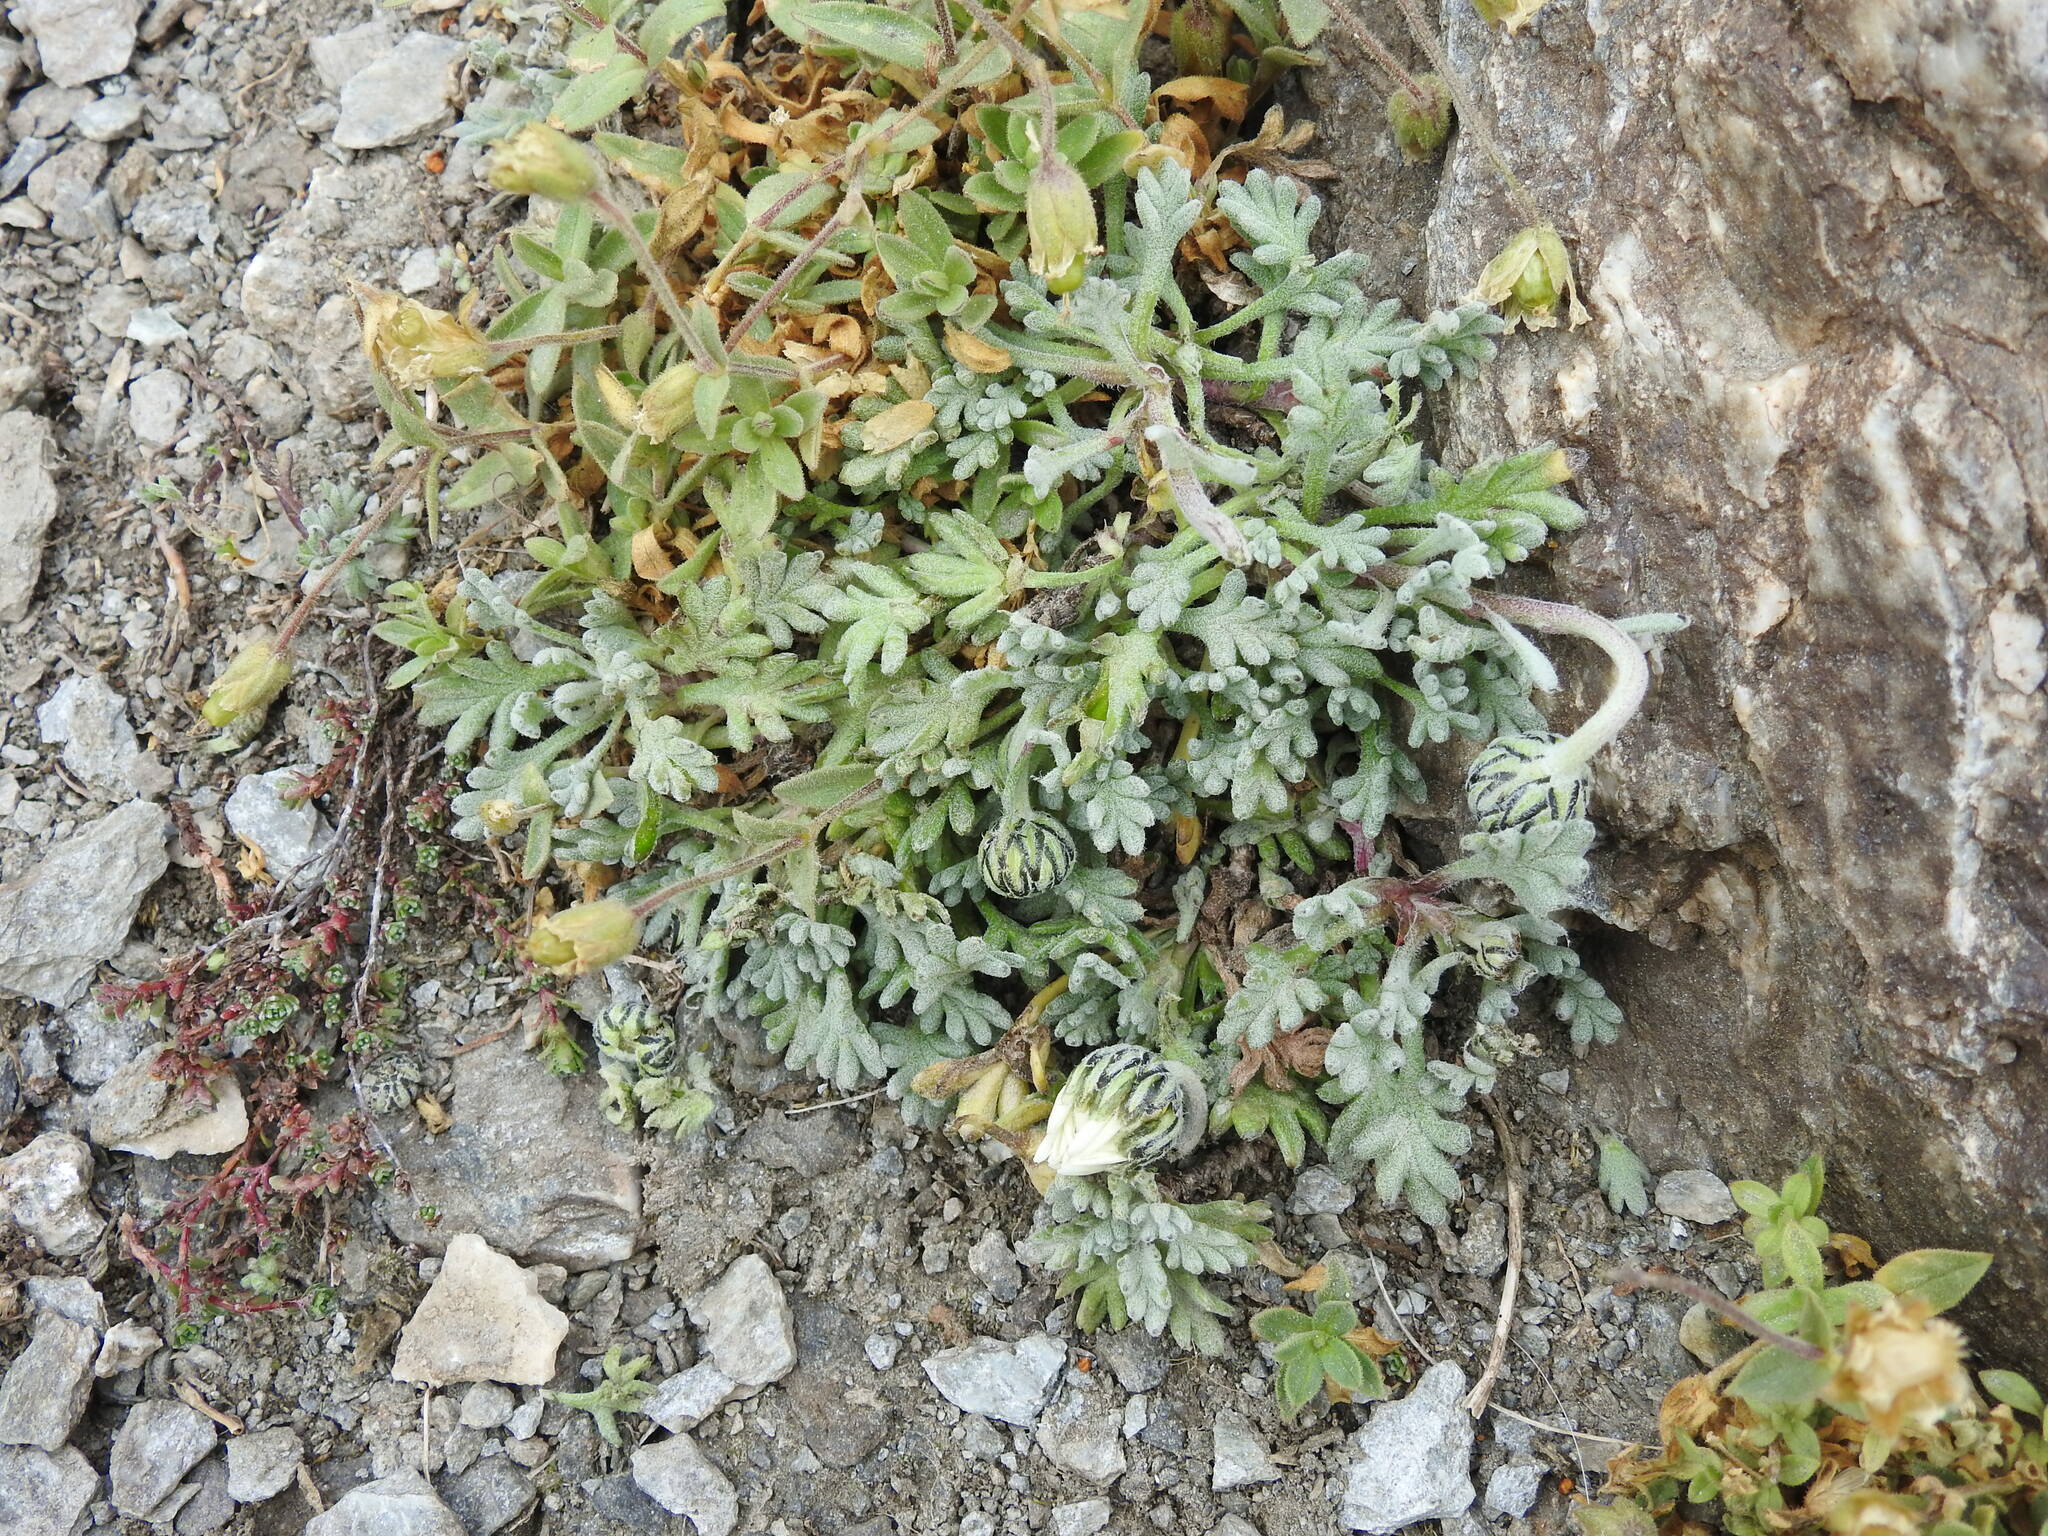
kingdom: Plantae
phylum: Tracheophyta
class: Magnoliopsida
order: Asterales
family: Asteraceae
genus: Leucanthemopsis
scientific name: Leucanthemopsis alpina
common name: Alpine moon daisy
